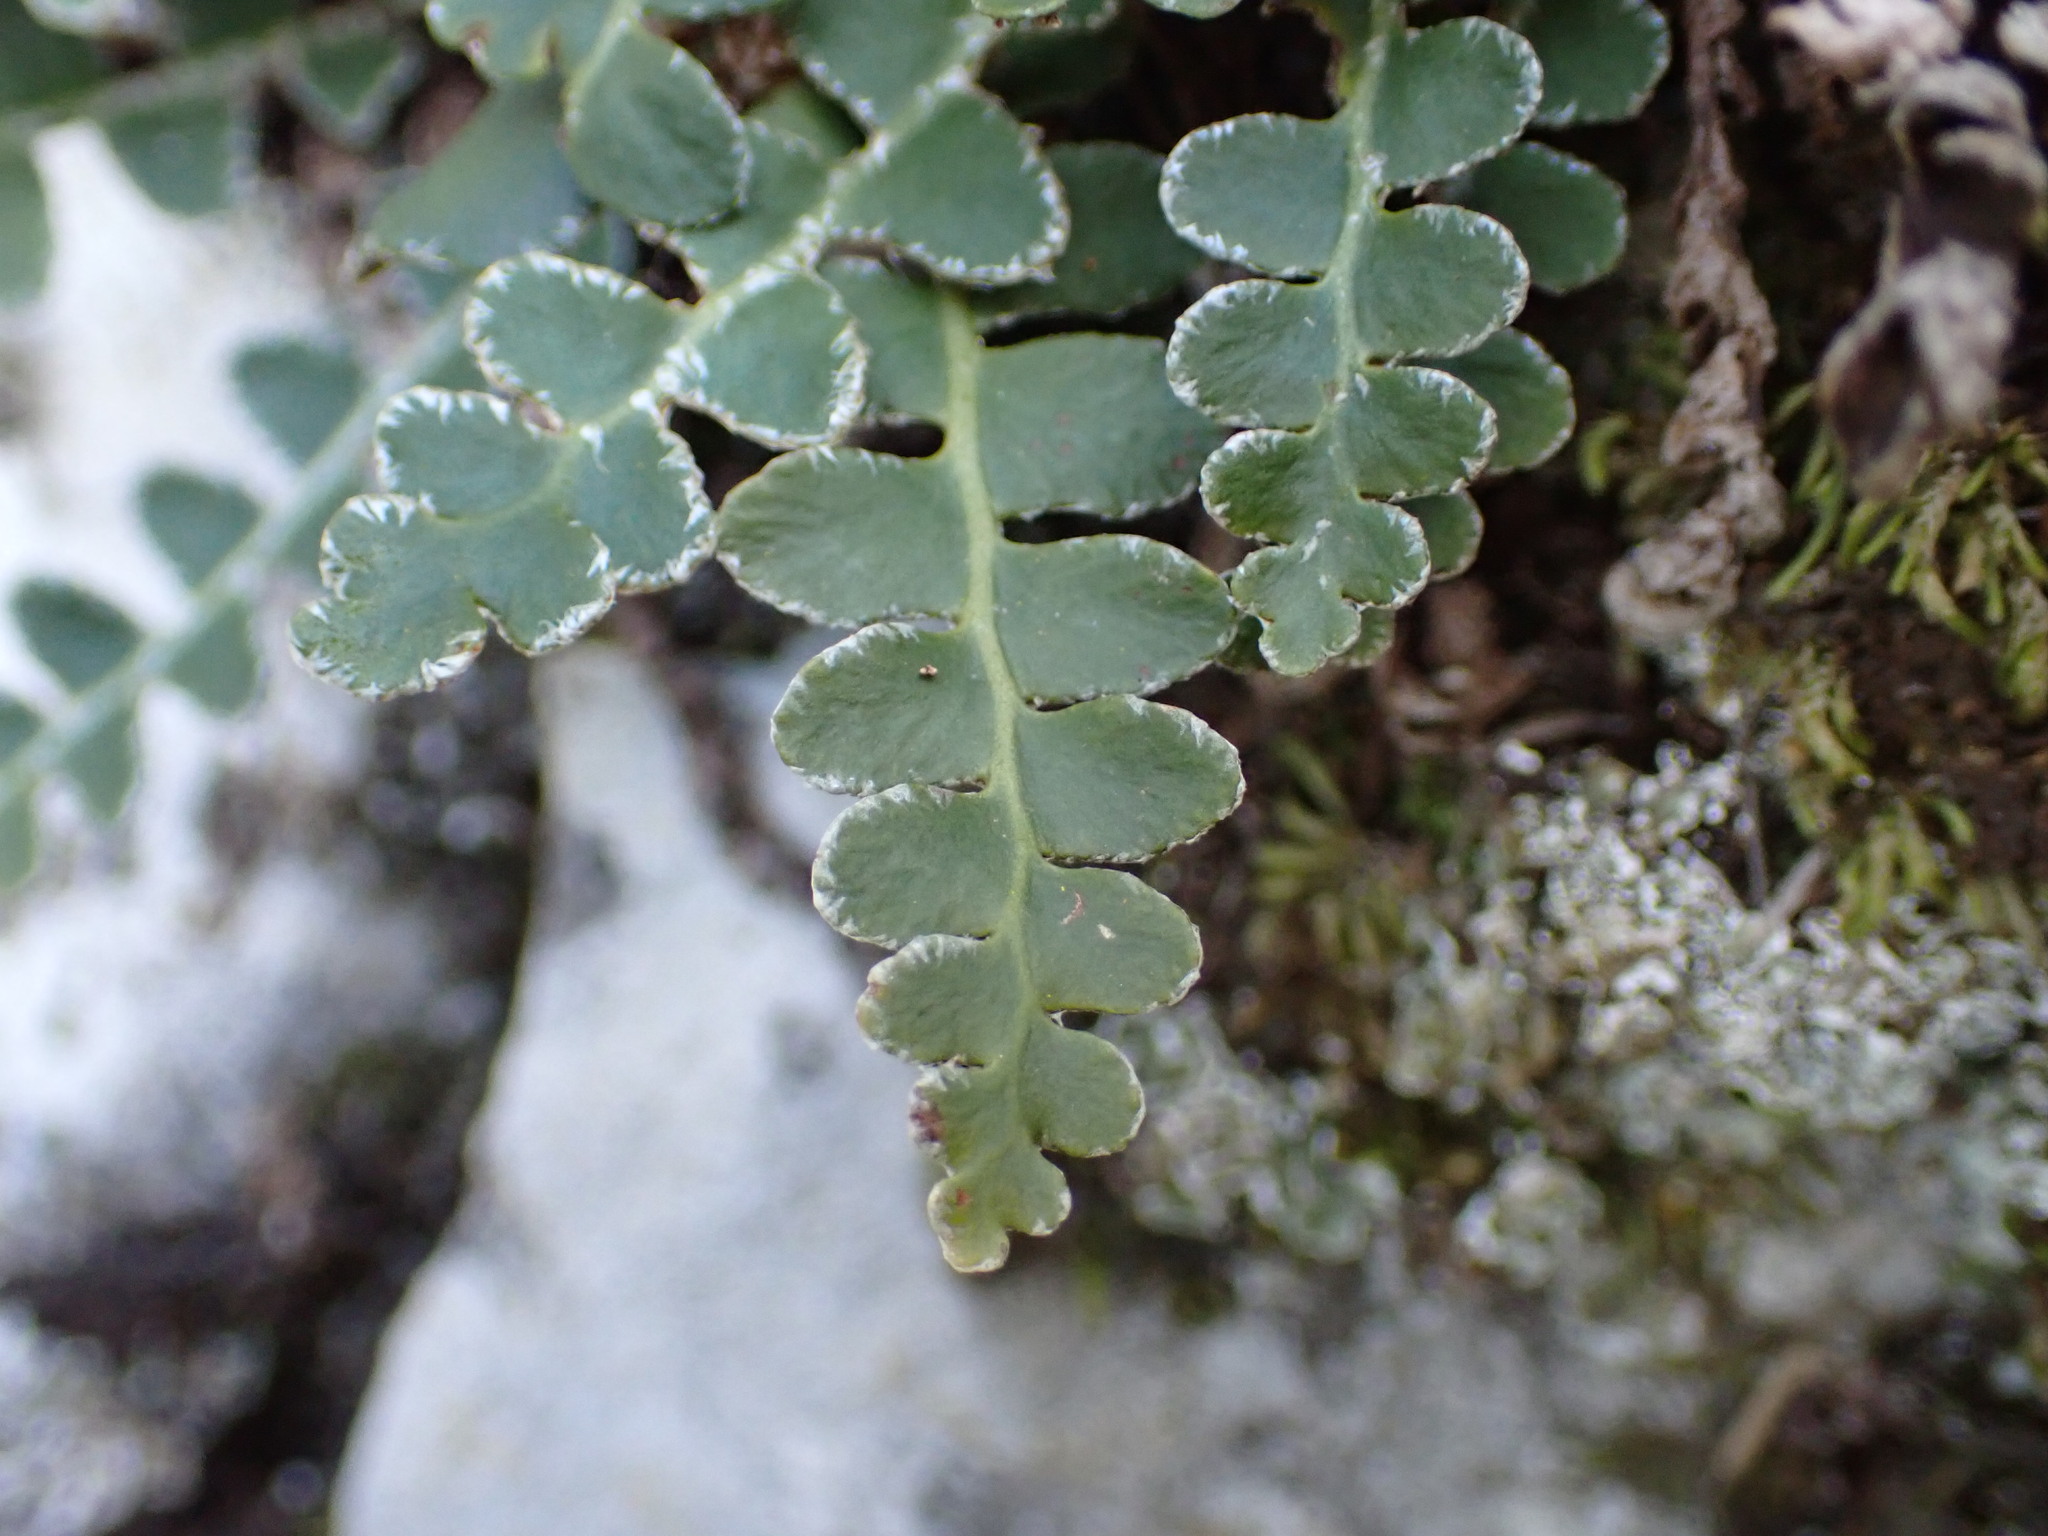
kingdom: Plantae
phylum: Tracheophyta
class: Polypodiopsida
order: Polypodiales
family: Aspleniaceae
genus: Asplenium
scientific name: Asplenium ceterach
